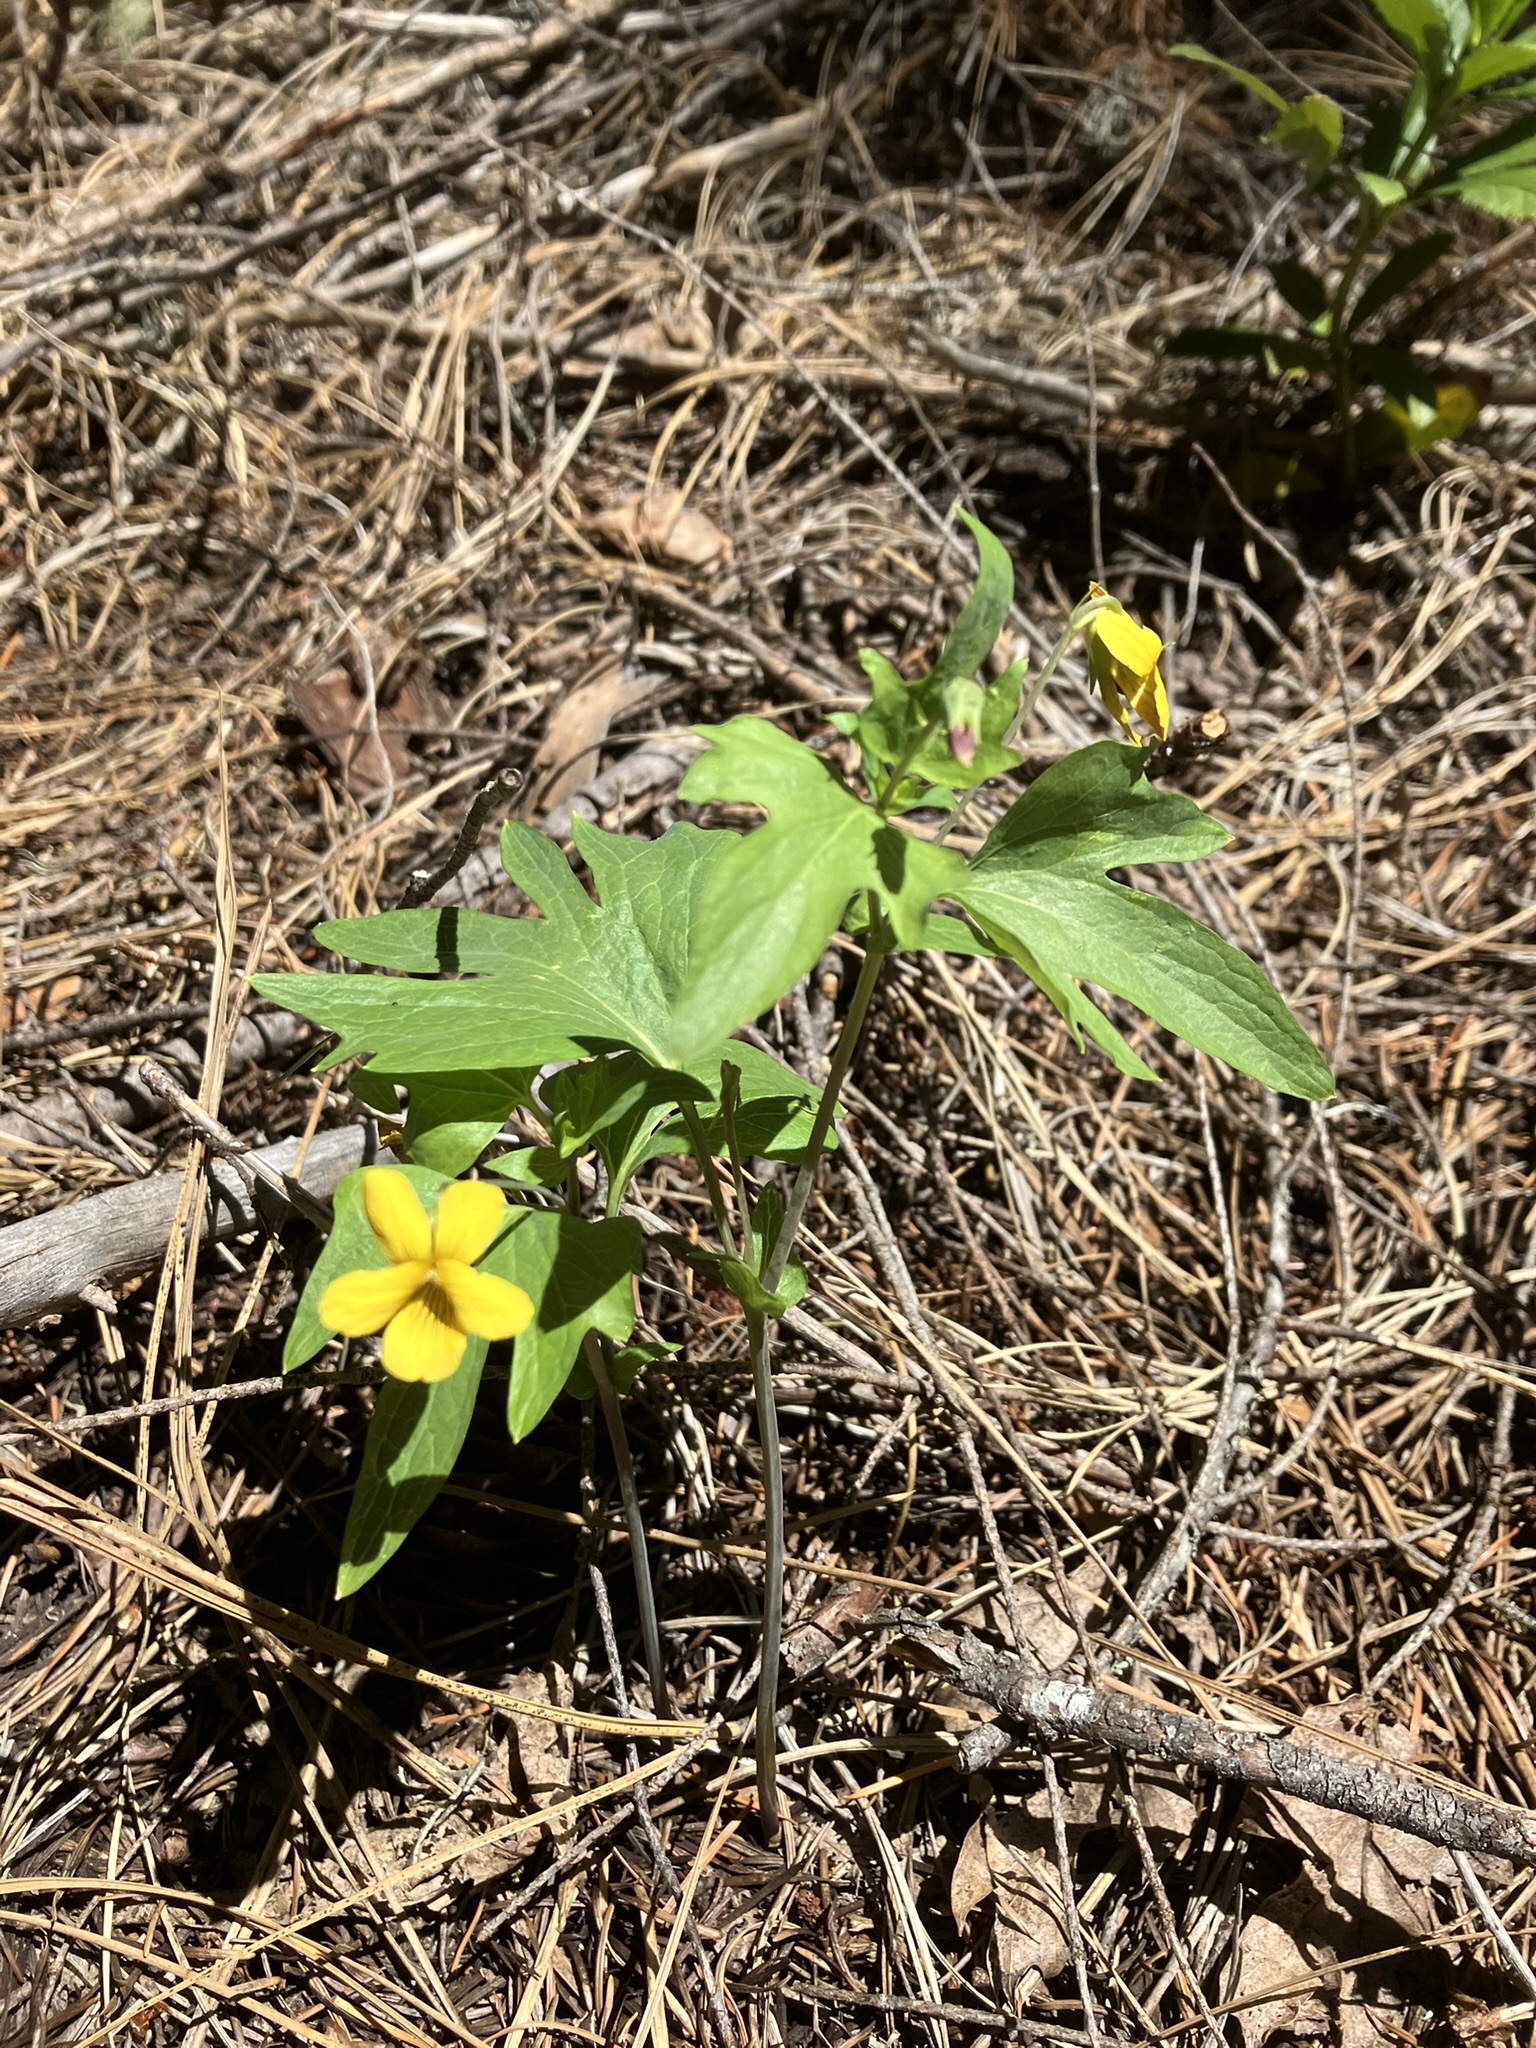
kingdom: Plantae
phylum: Tracheophyta
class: Magnoliopsida
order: Malpighiales
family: Violaceae
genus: Viola
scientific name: Viola lobata
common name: Pine violet
